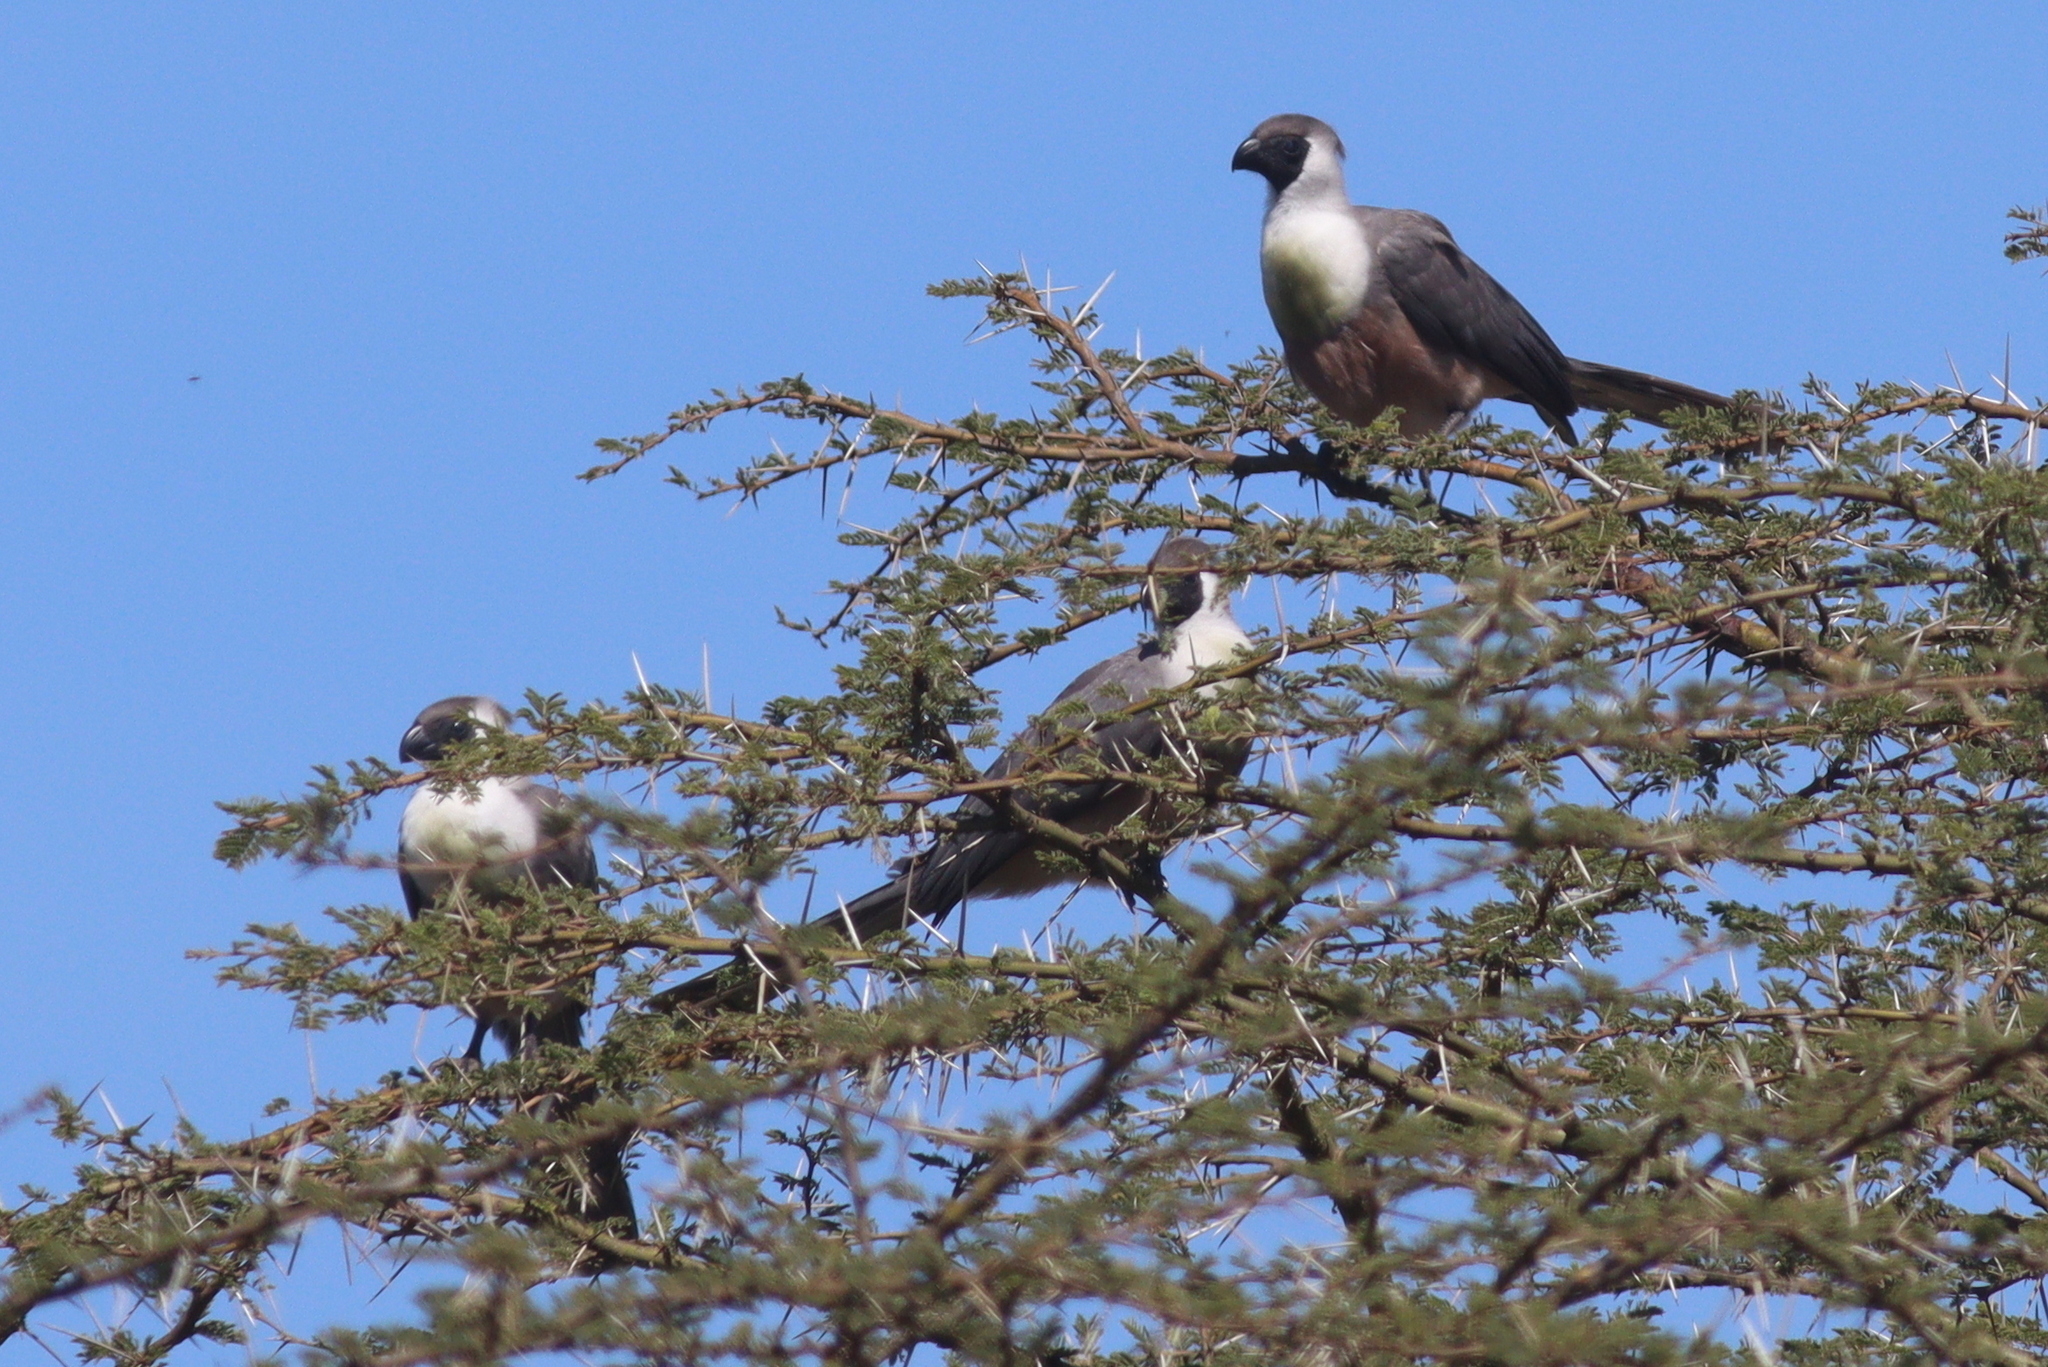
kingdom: Animalia
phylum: Chordata
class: Aves
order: Musophagiformes
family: Musophagidae
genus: Corythaixoides
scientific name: Corythaixoides personatus
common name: Bare-faced go-away-bird
